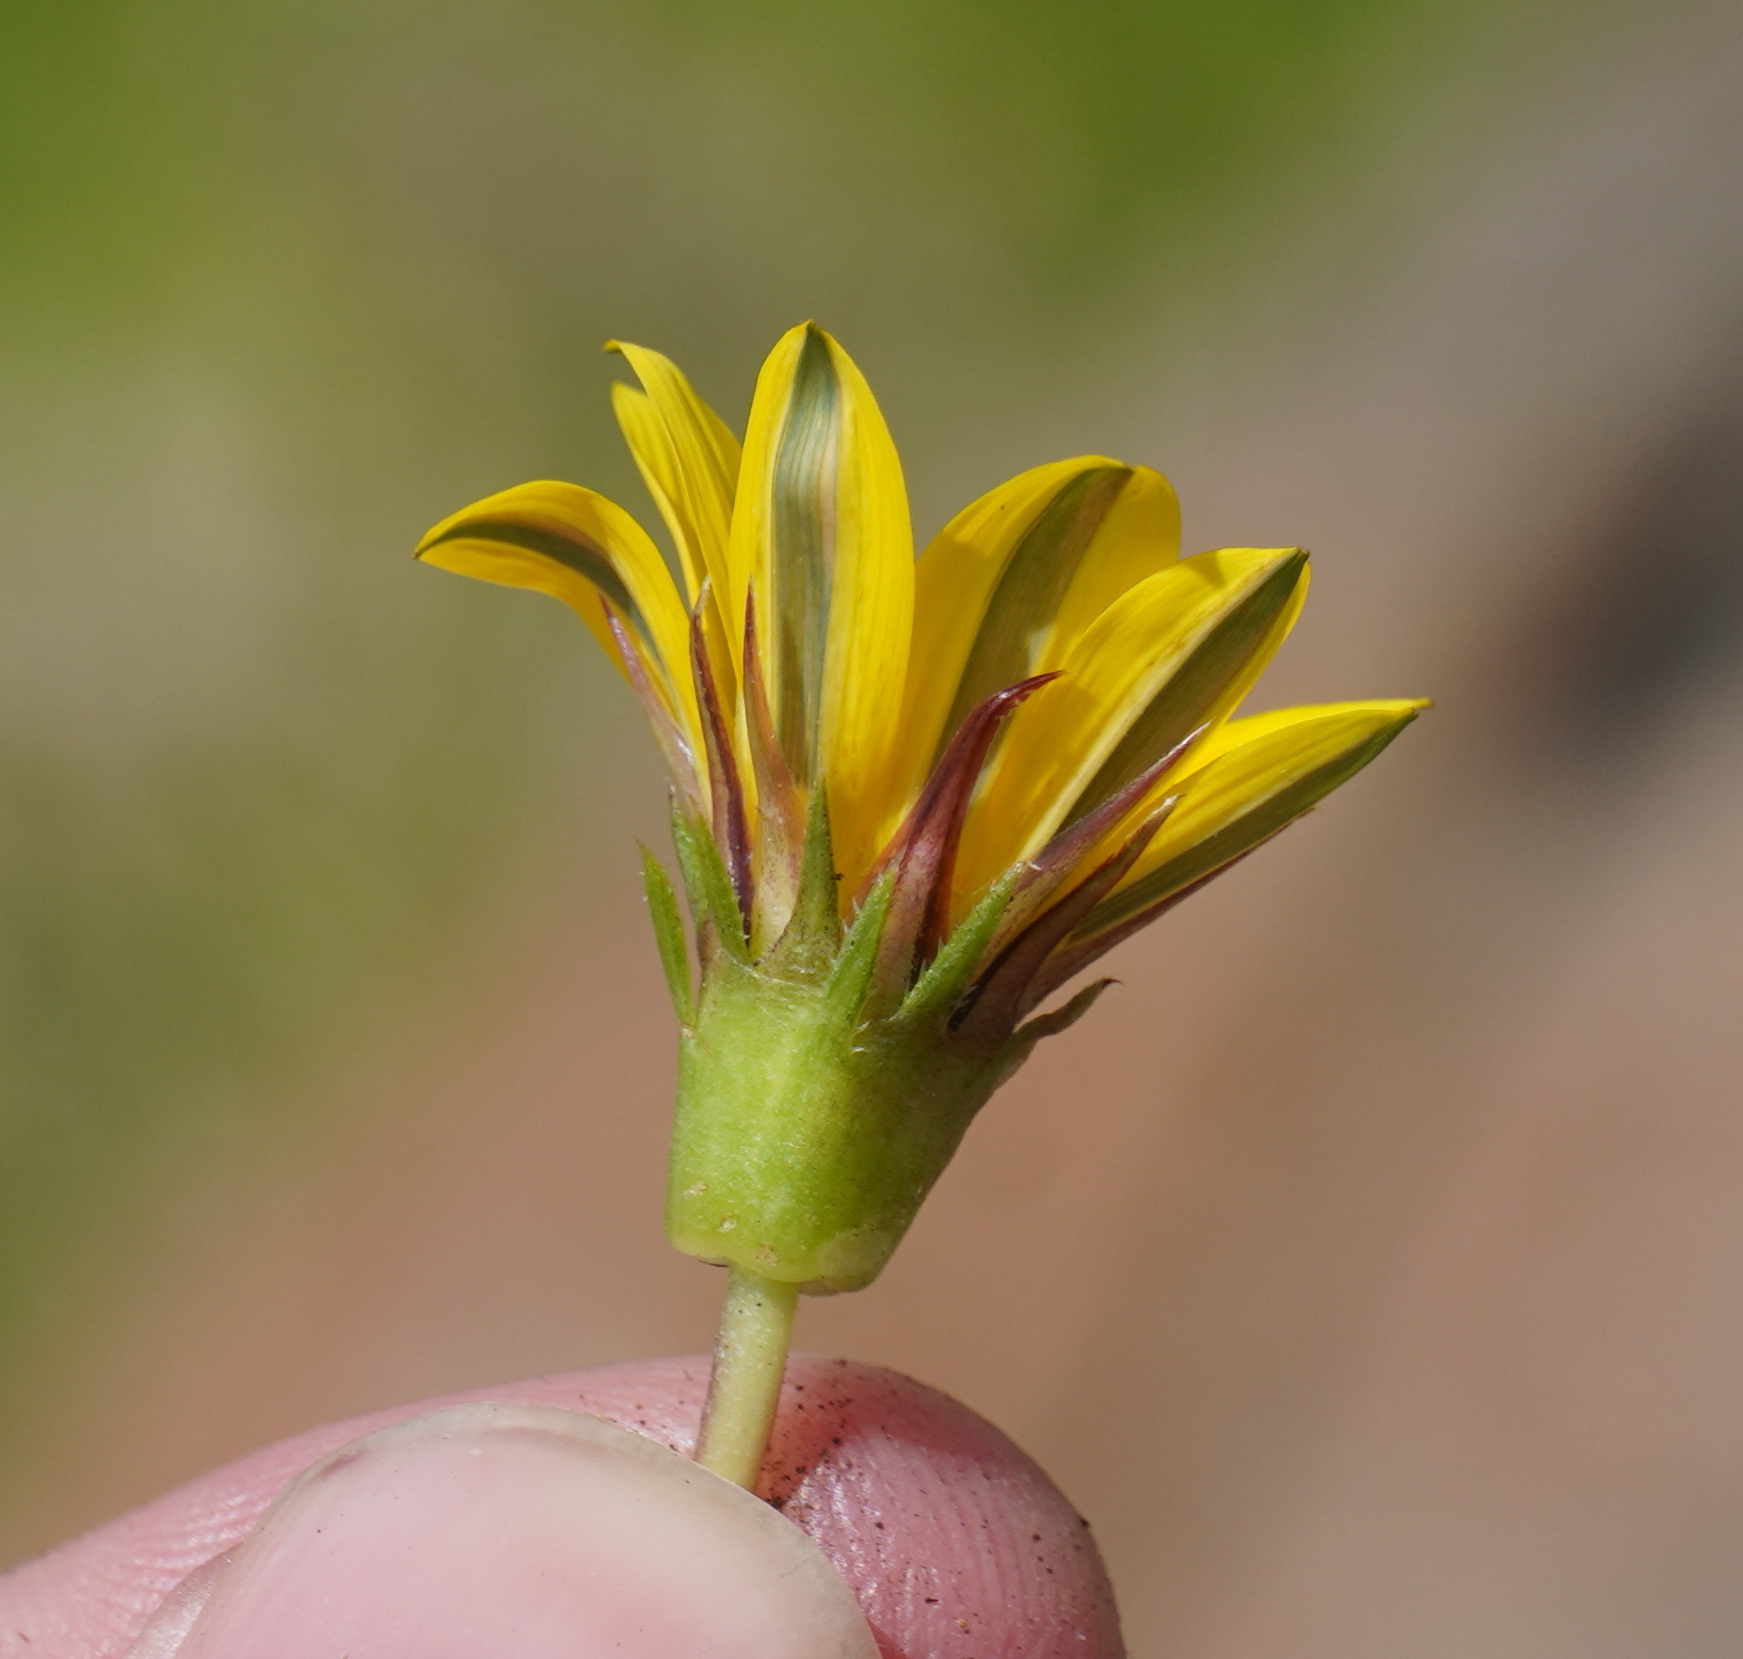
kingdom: Plantae
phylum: Tracheophyta
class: Magnoliopsida
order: Asterales
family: Asteraceae
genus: Gazania
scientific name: Gazania linearis
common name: Treasureflower
